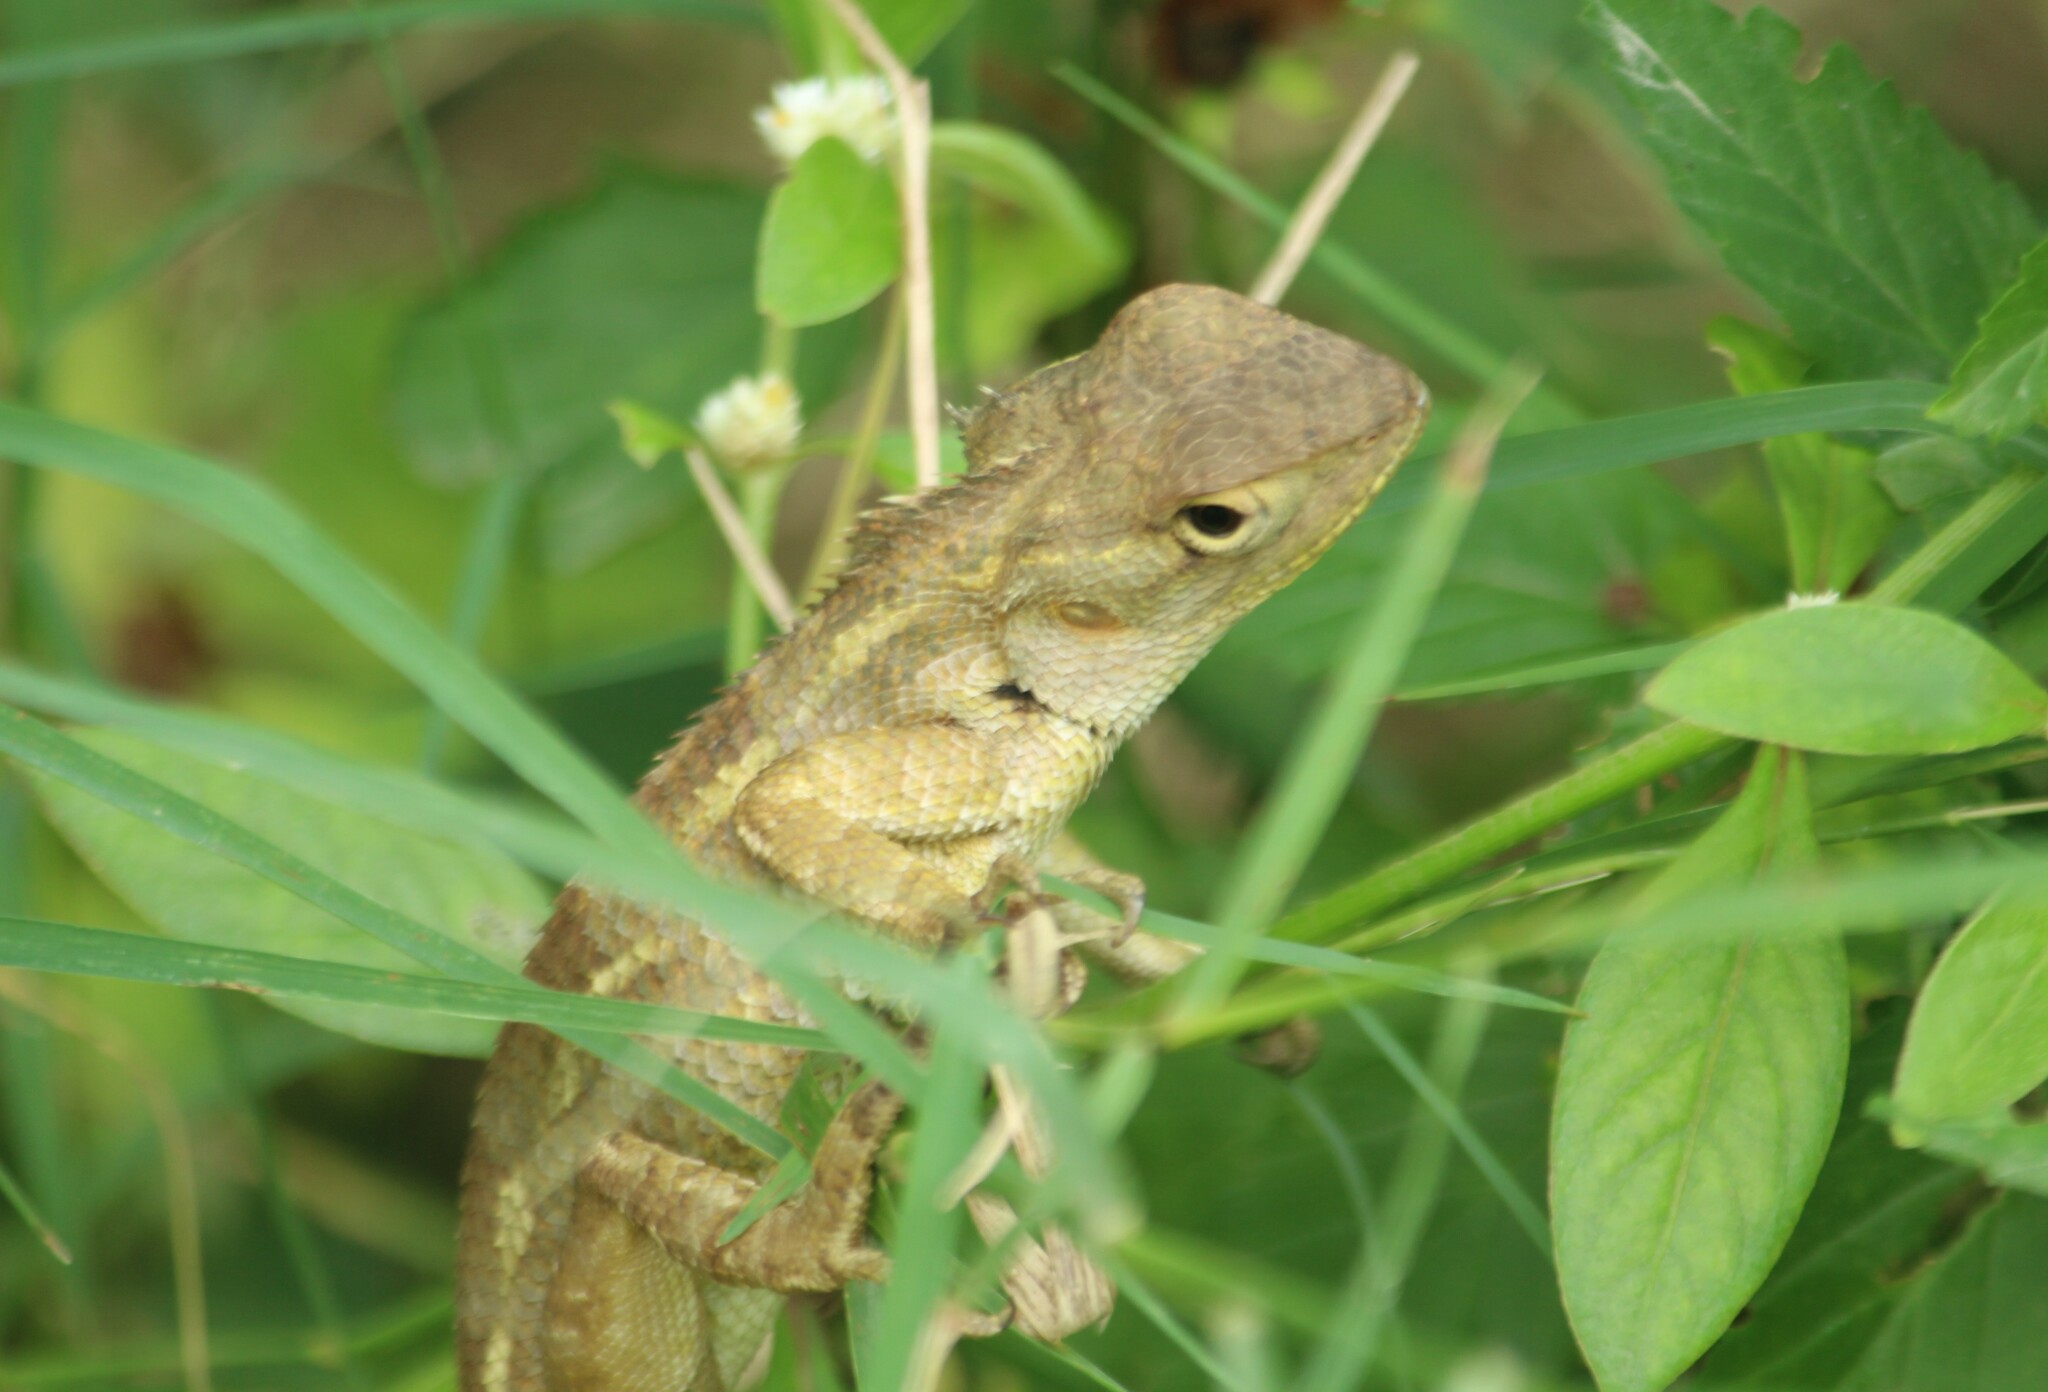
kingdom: Animalia
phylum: Chordata
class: Squamata
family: Agamidae
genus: Calotes
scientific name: Calotes versicolor
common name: Oriental garden lizard
